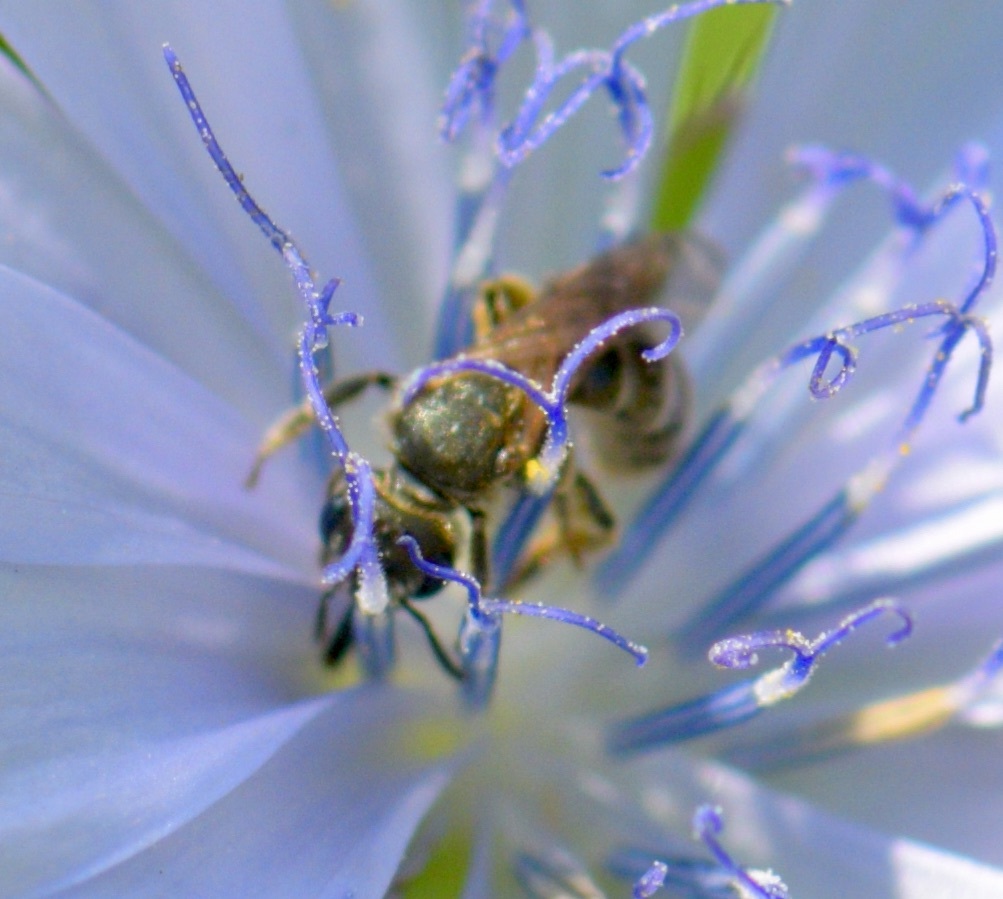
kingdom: Animalia
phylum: Arthropoda
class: Insecta
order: Hymenoptera
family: Halictidae
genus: Halictus
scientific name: Halictus confusus
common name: Southern bronze furrow bee
